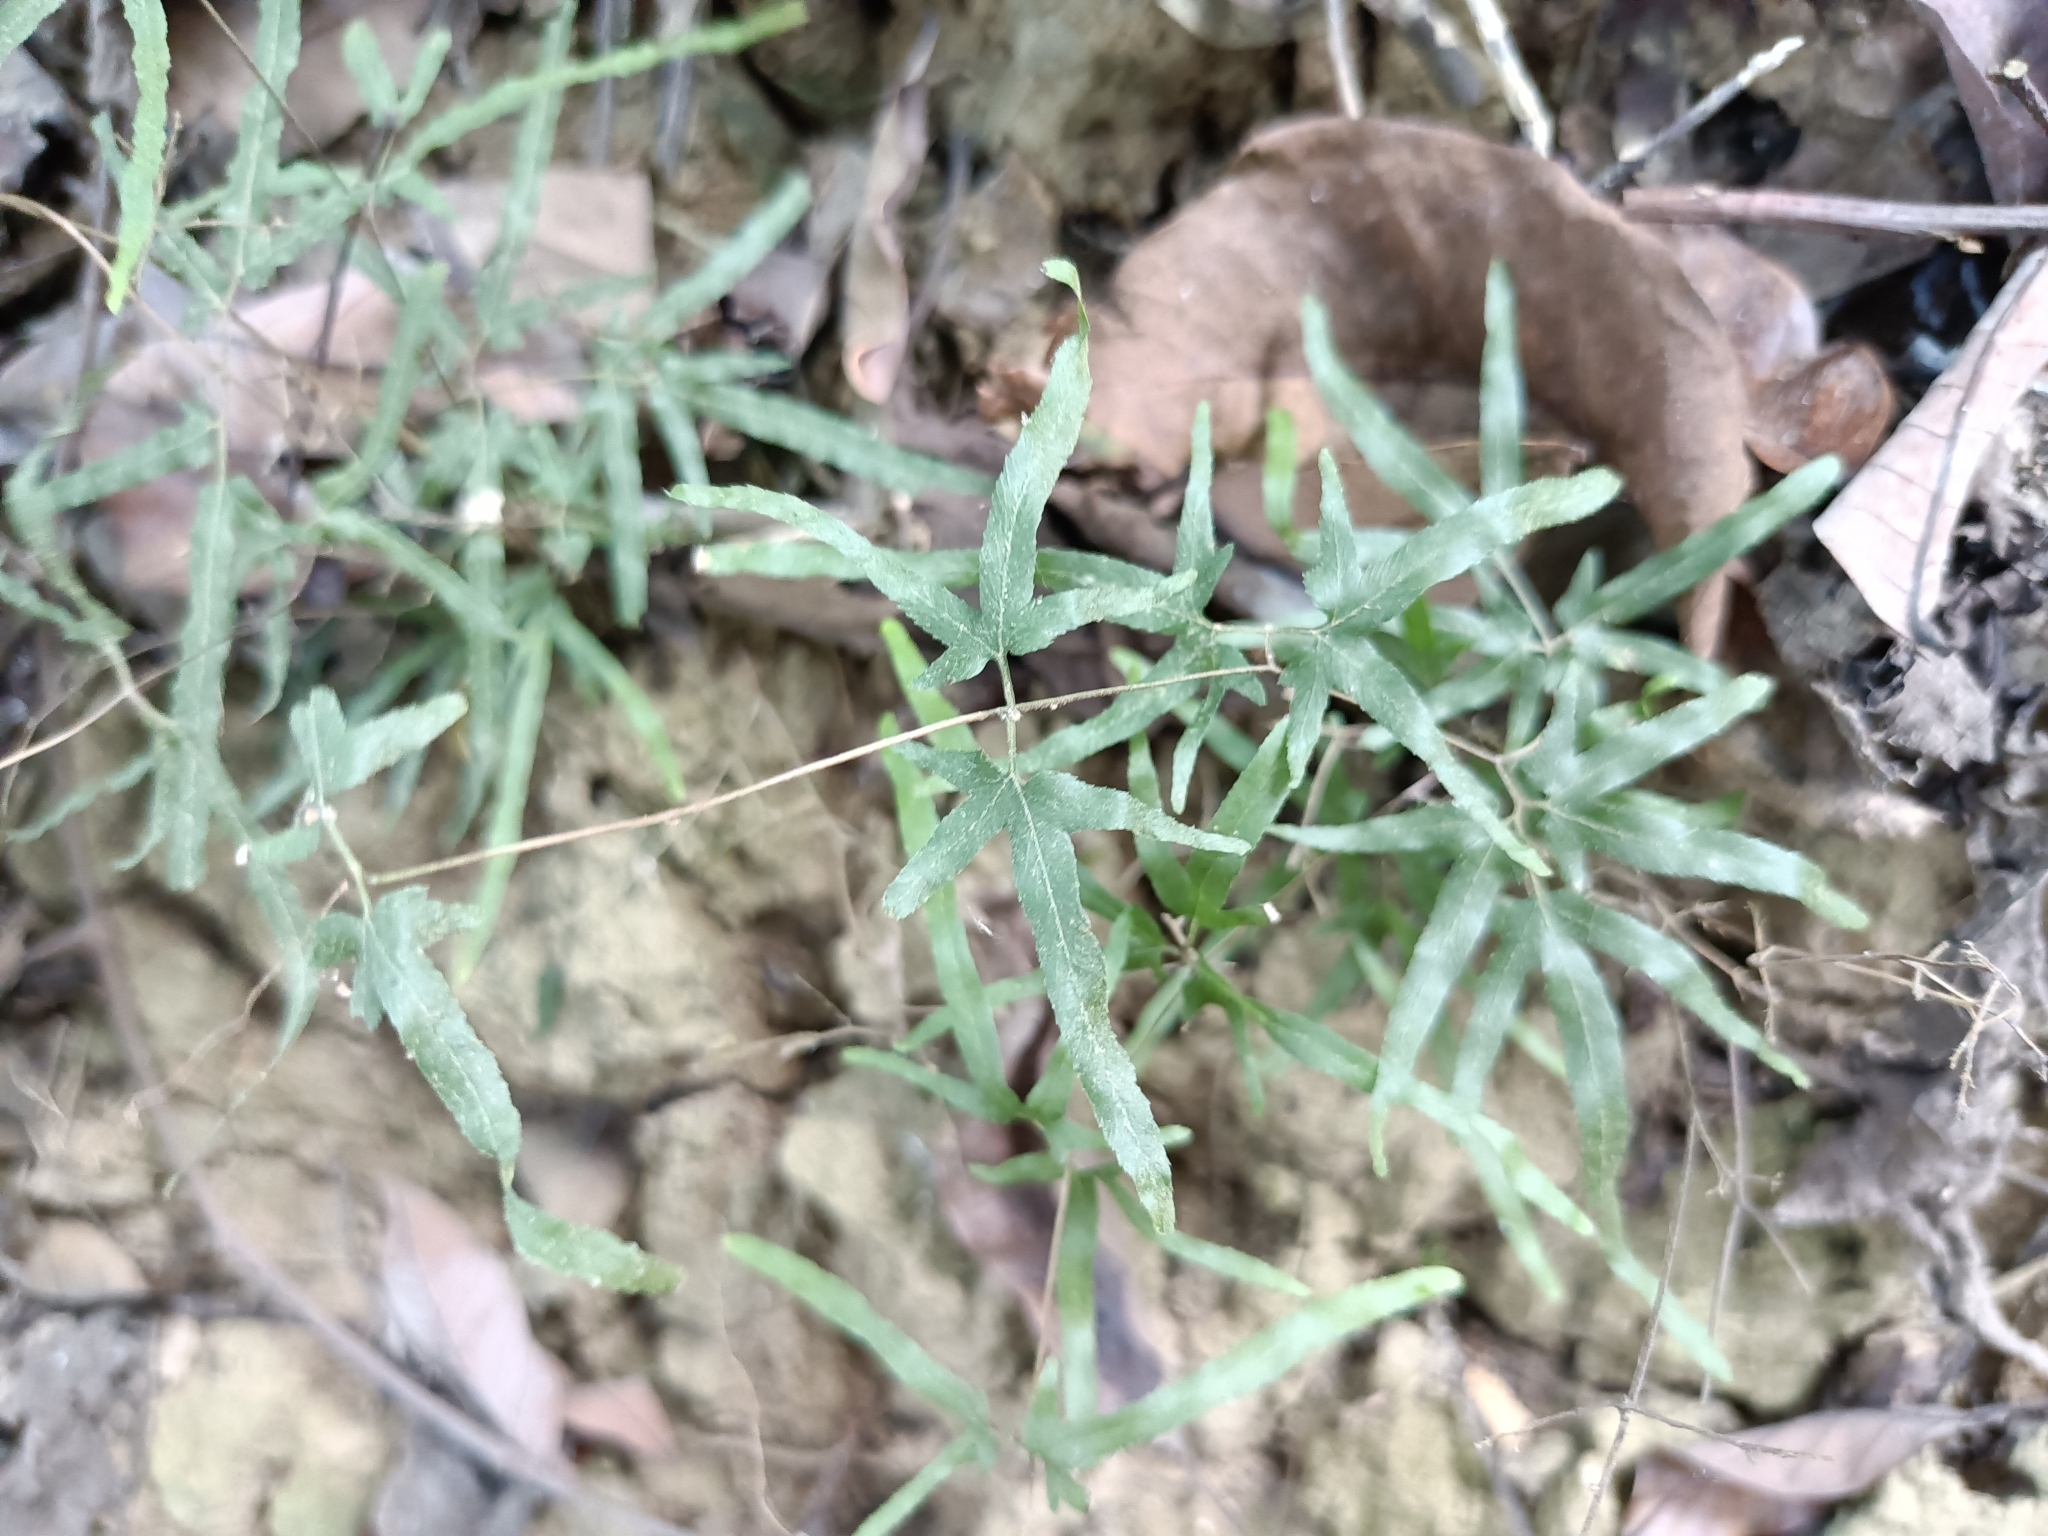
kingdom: Plantae
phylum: Tracheophyta
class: Polypodiopsida
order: Schizaeales
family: Lygodiaceae
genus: Lygodium
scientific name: Lygodium japonicum
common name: Japanese climbing fern
